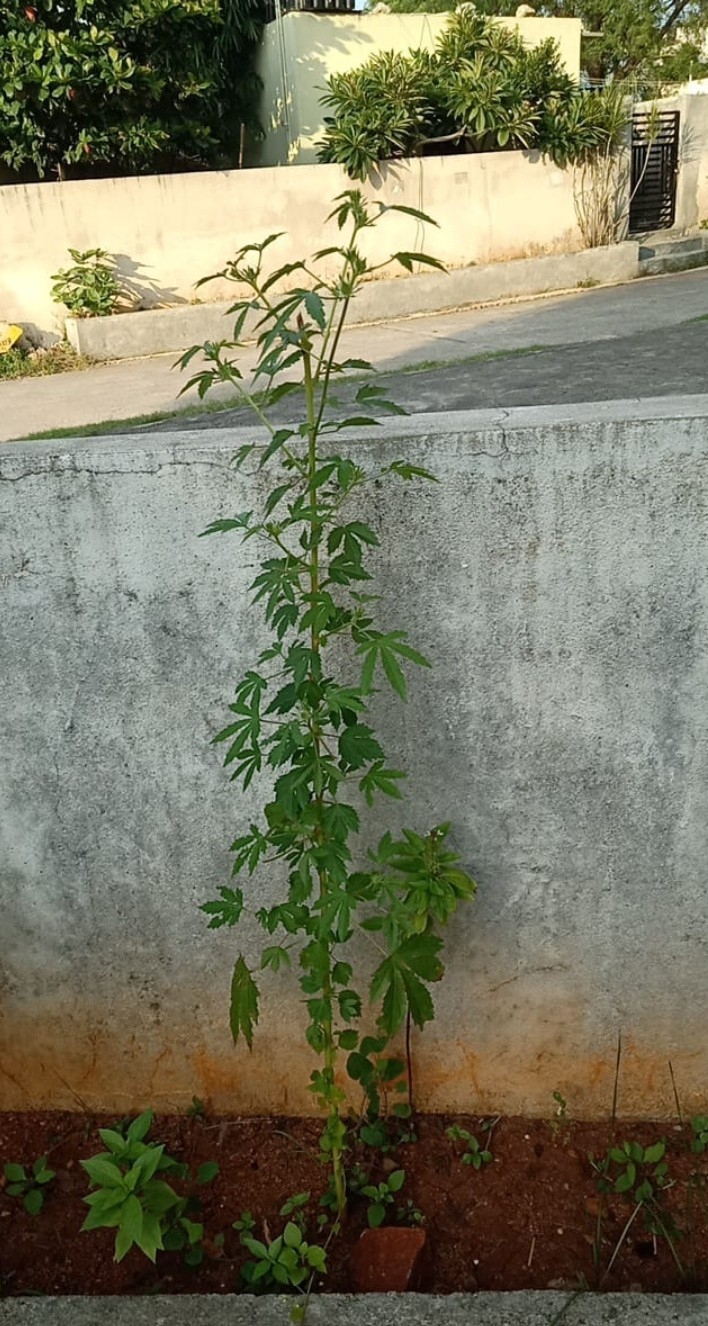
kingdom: Plantae
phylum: Tracheophyta
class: Magnoliopsida
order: Malvales
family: Malvaceae
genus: Hibiscus
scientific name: Hibiscus cannabinus
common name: Brown indianhemp
